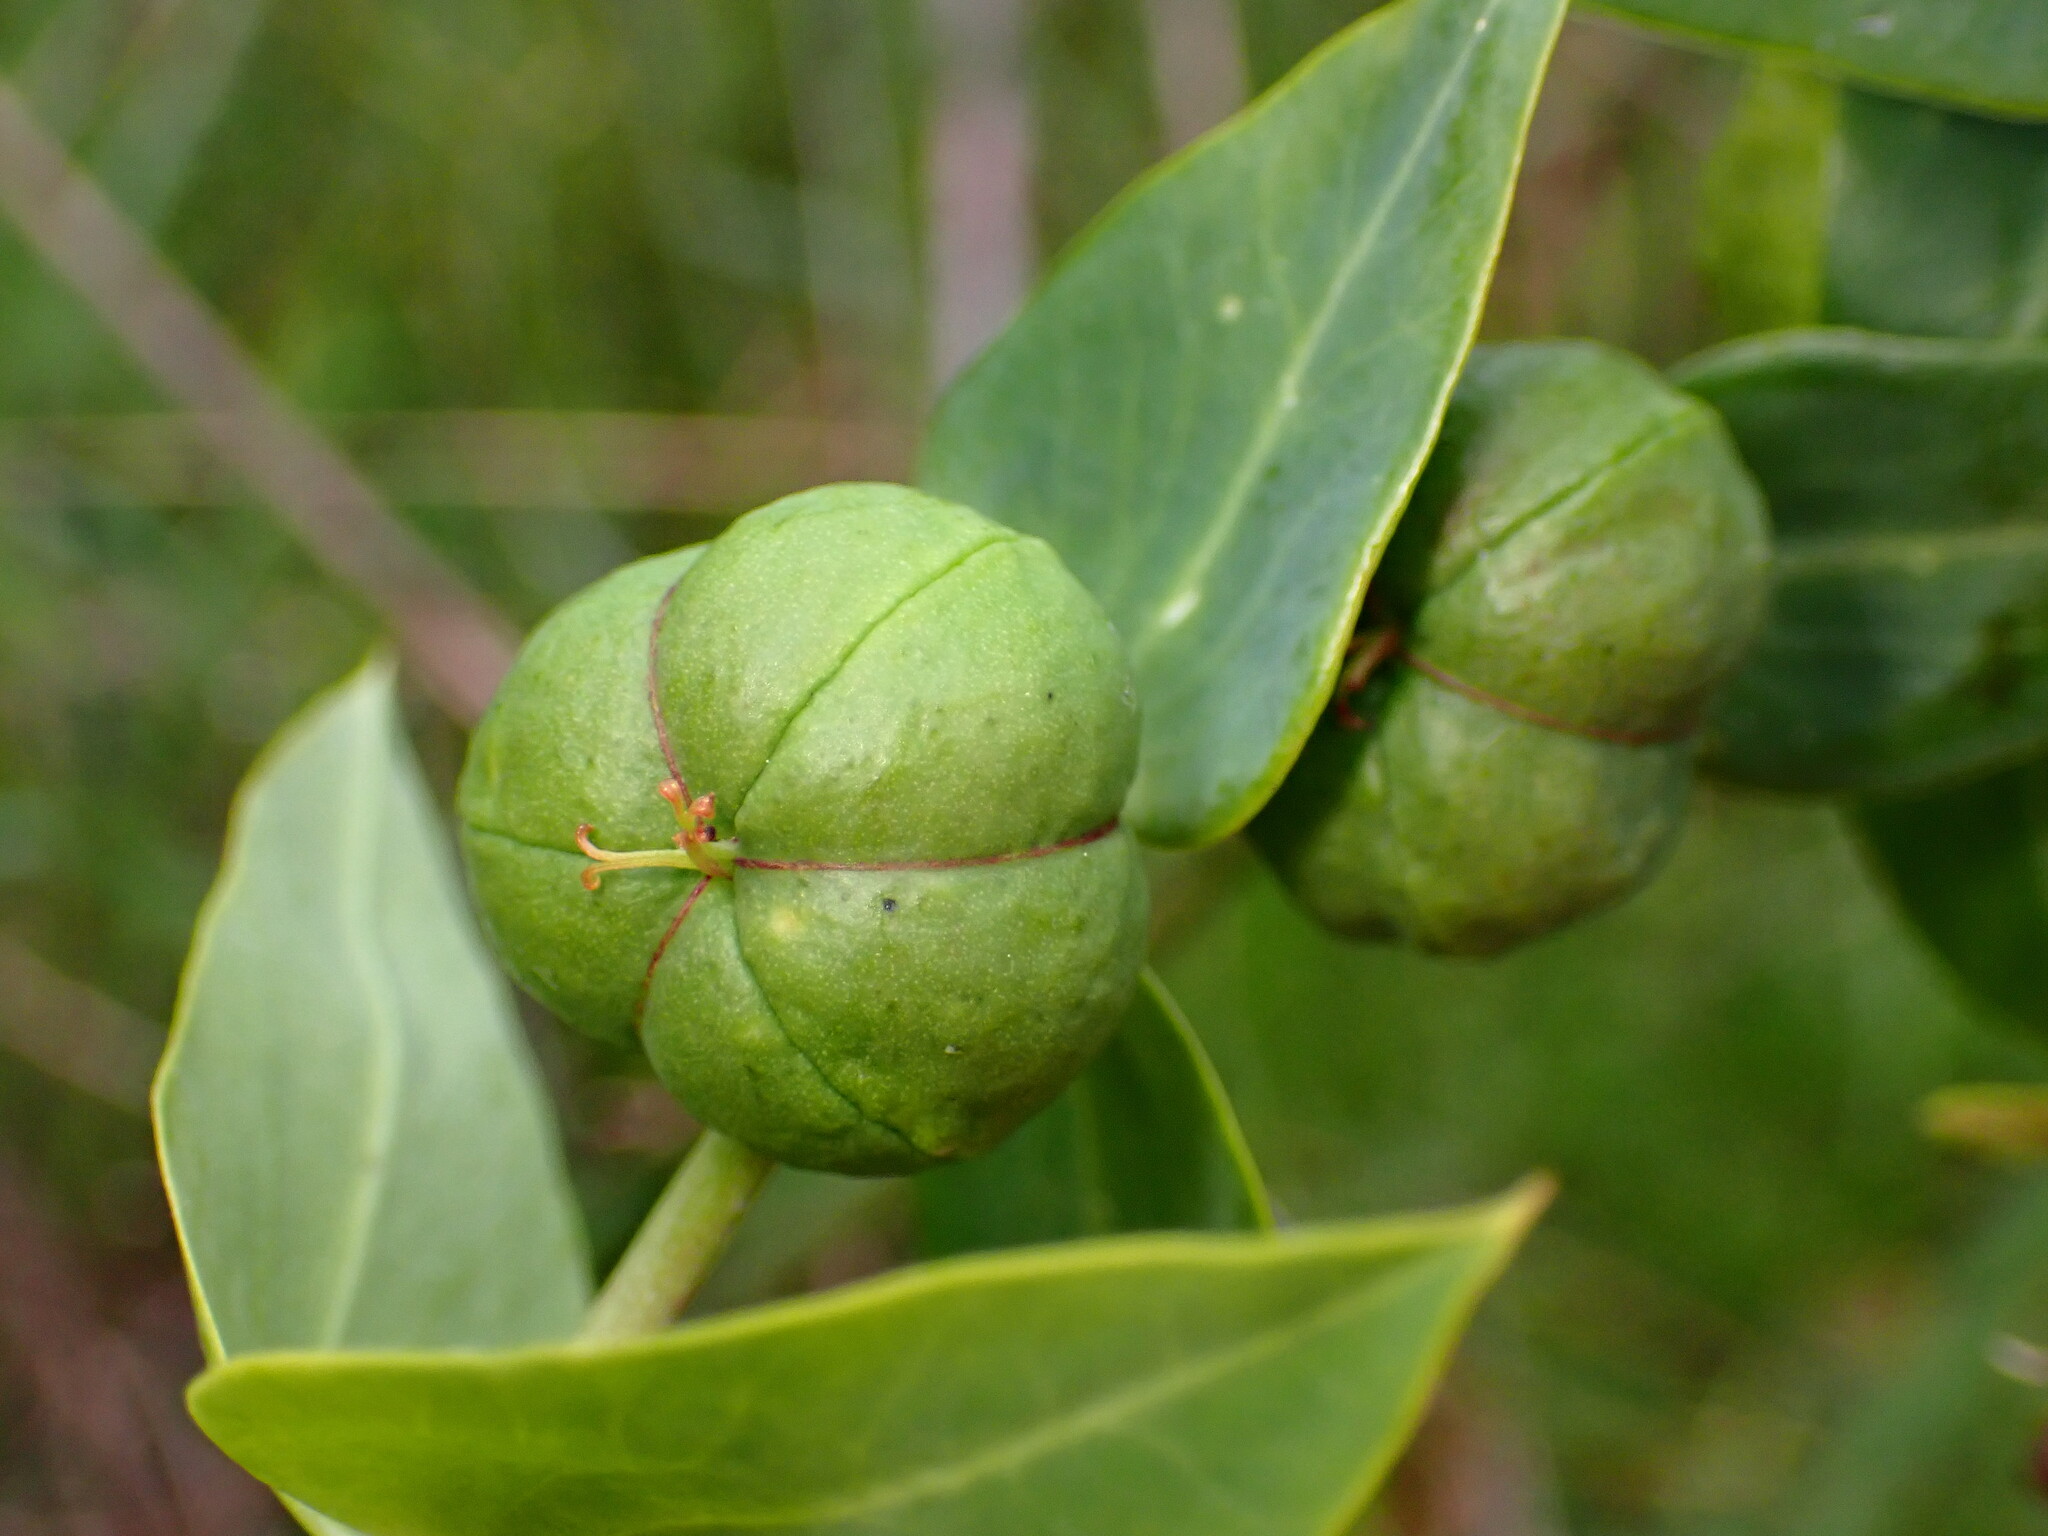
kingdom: Plantae
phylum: Tracheophyta
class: Magnoliopsida
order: Malpighiales
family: Euphorbiaceae
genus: Euphorbia
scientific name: Euphorbia lathyris
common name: Caper spurge
